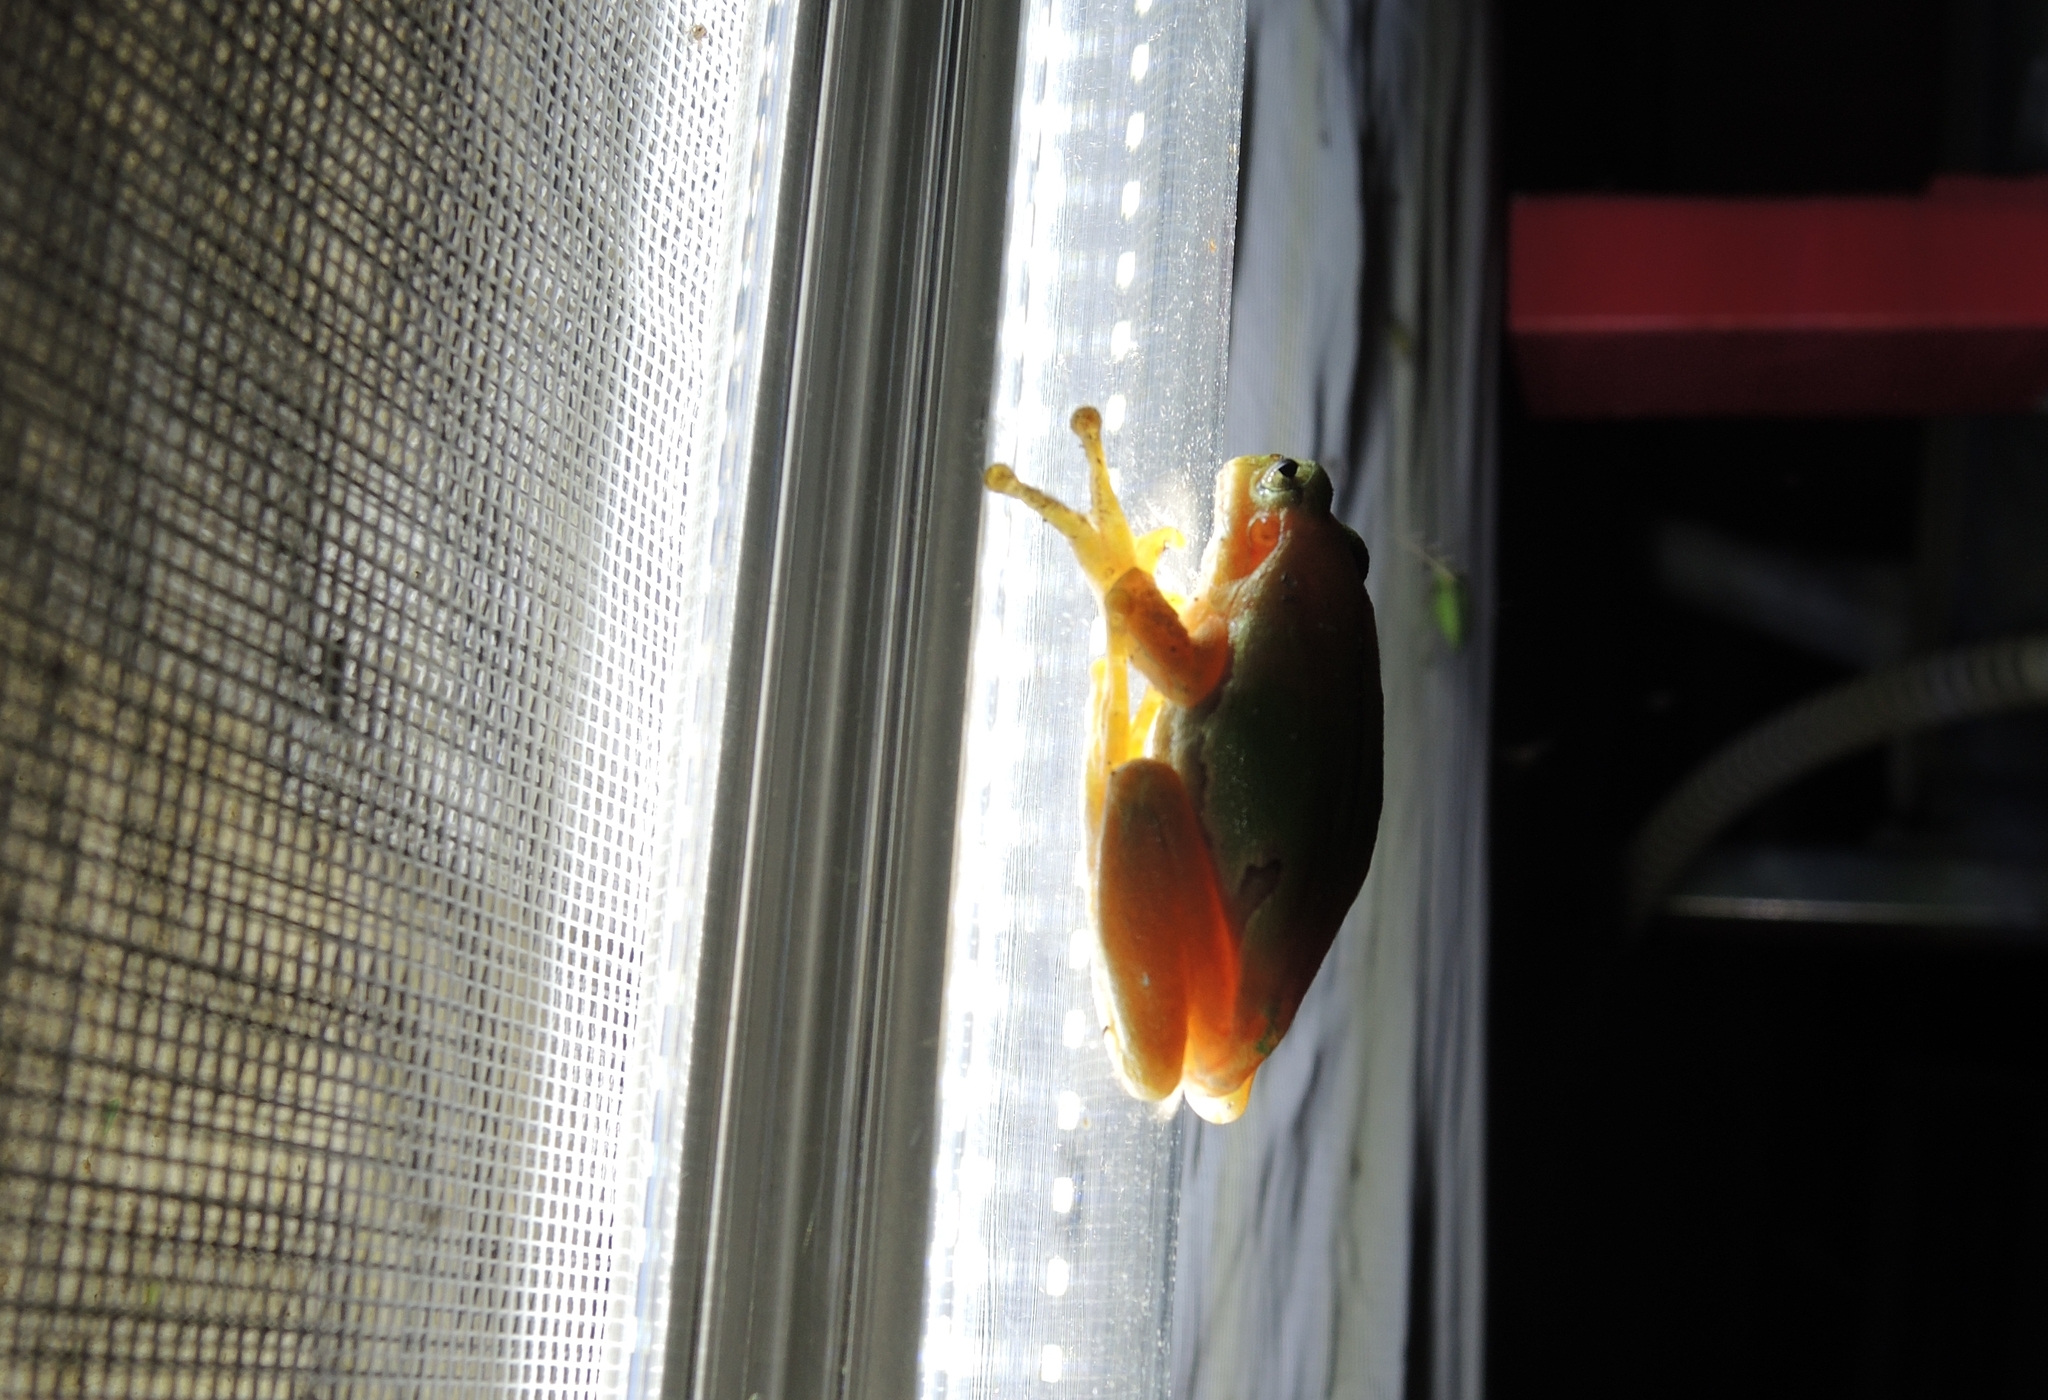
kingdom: Animalia
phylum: Chordata
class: Amphibia
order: Anura
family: Hylidae
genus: Hyla
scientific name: Hyla orientalis
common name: Caucasian treefrog
